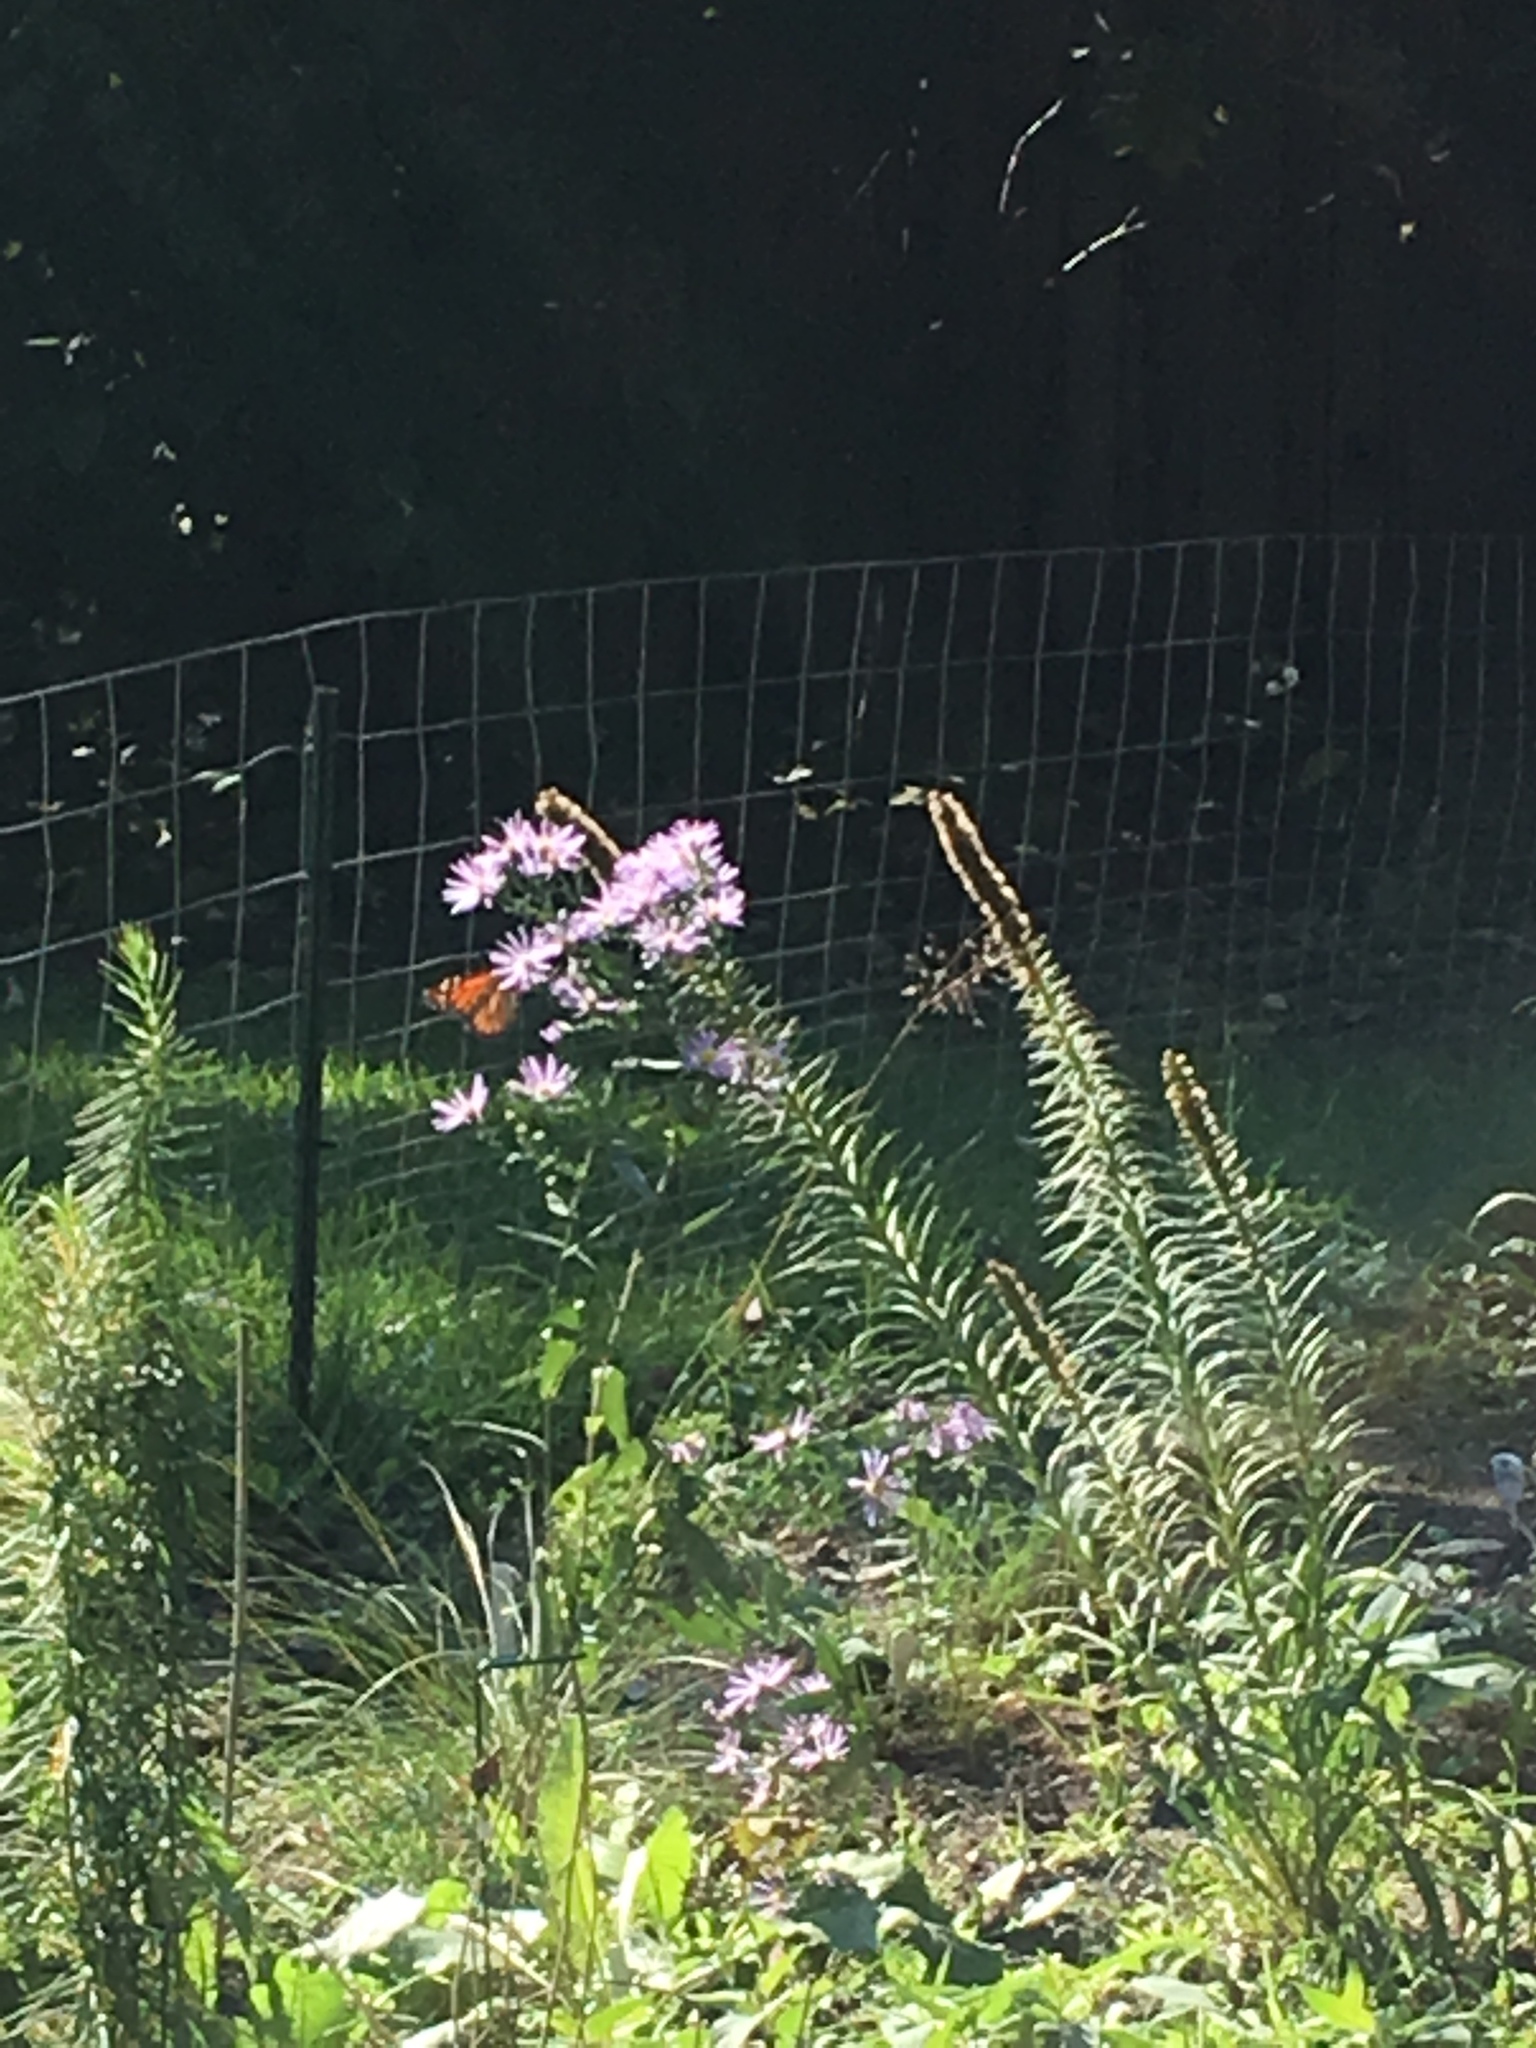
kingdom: Animalia
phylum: Arthropoda
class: Insecta
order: Lepidoptera
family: Nymphalidae
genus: Danaus
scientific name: Danaus plexippus
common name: Monarch
